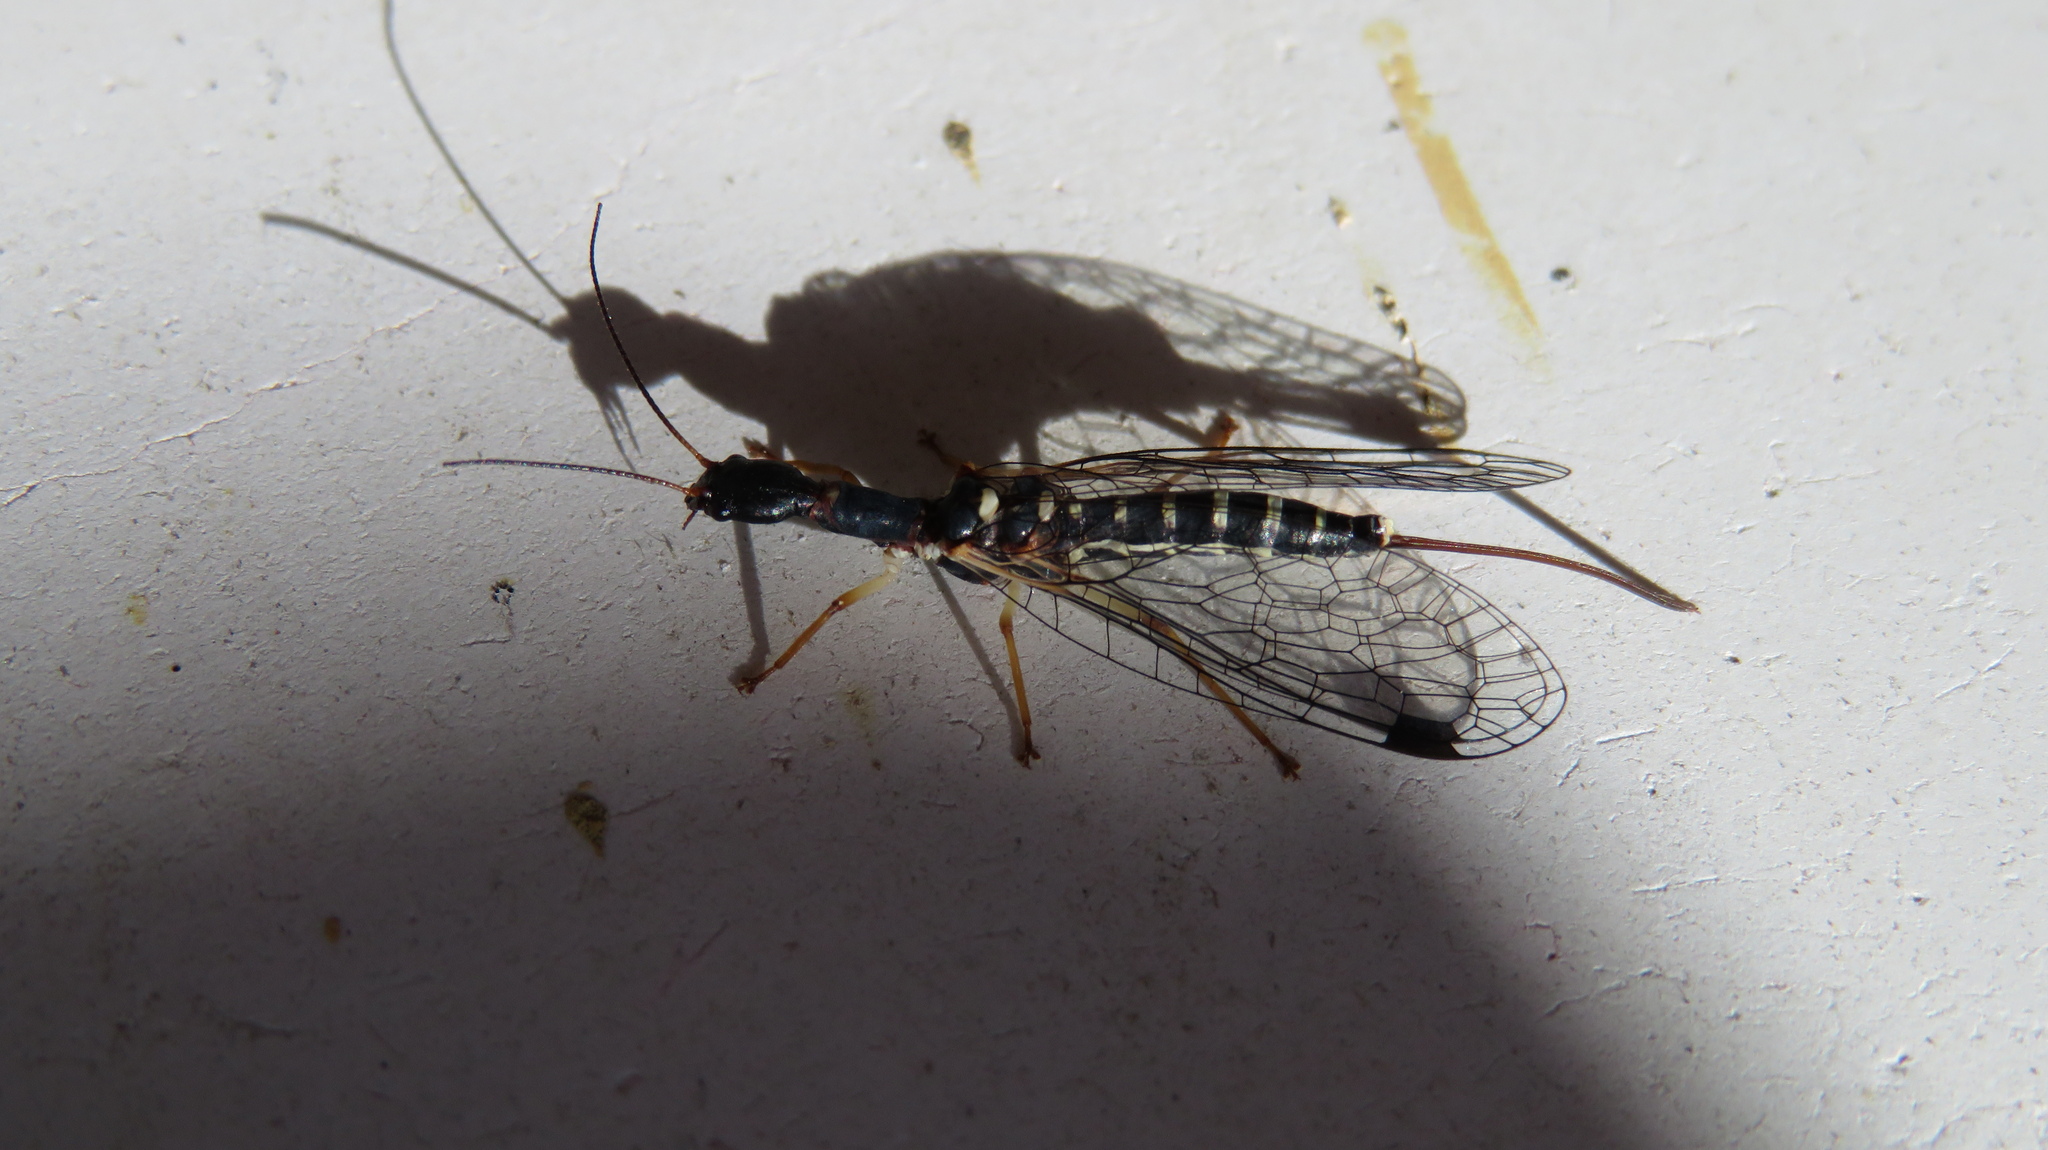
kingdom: Animalia
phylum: Arthropoda
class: Insecta
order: Raphidioptera
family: Inocelliidae
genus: Inocellia
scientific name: Inocellia japonica
